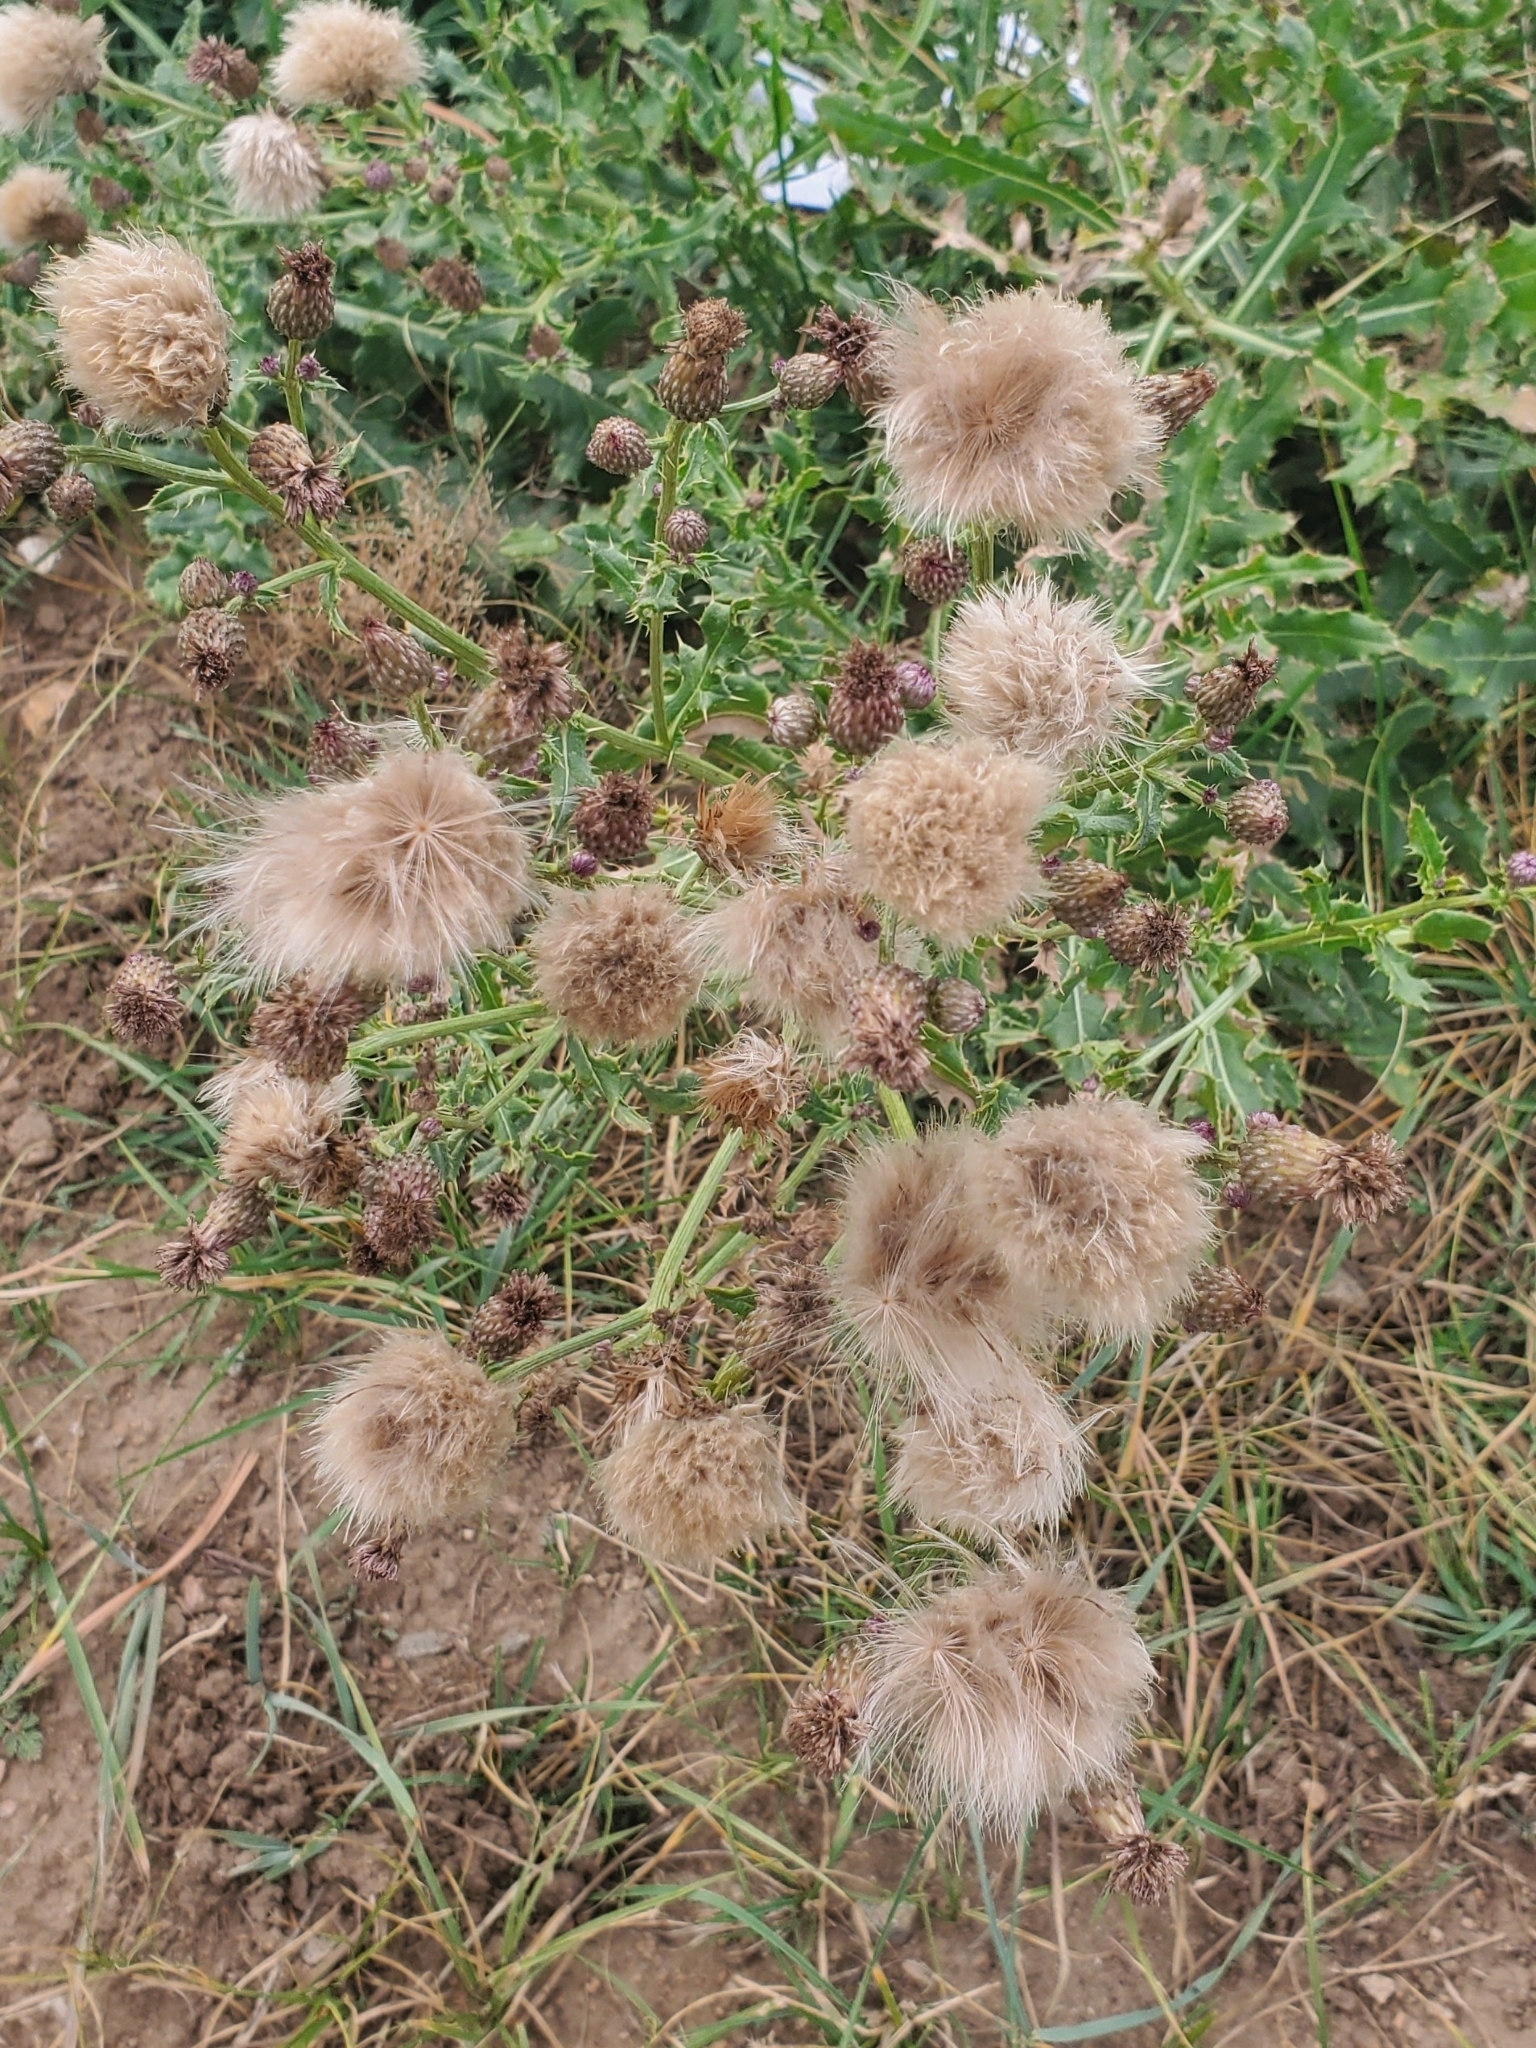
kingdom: Plantae
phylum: Tracheophyta
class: Magnoliopsida
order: Asterales
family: Asteraceae
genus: Cirsium
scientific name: Cirsium arvense
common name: Creeping thistle
